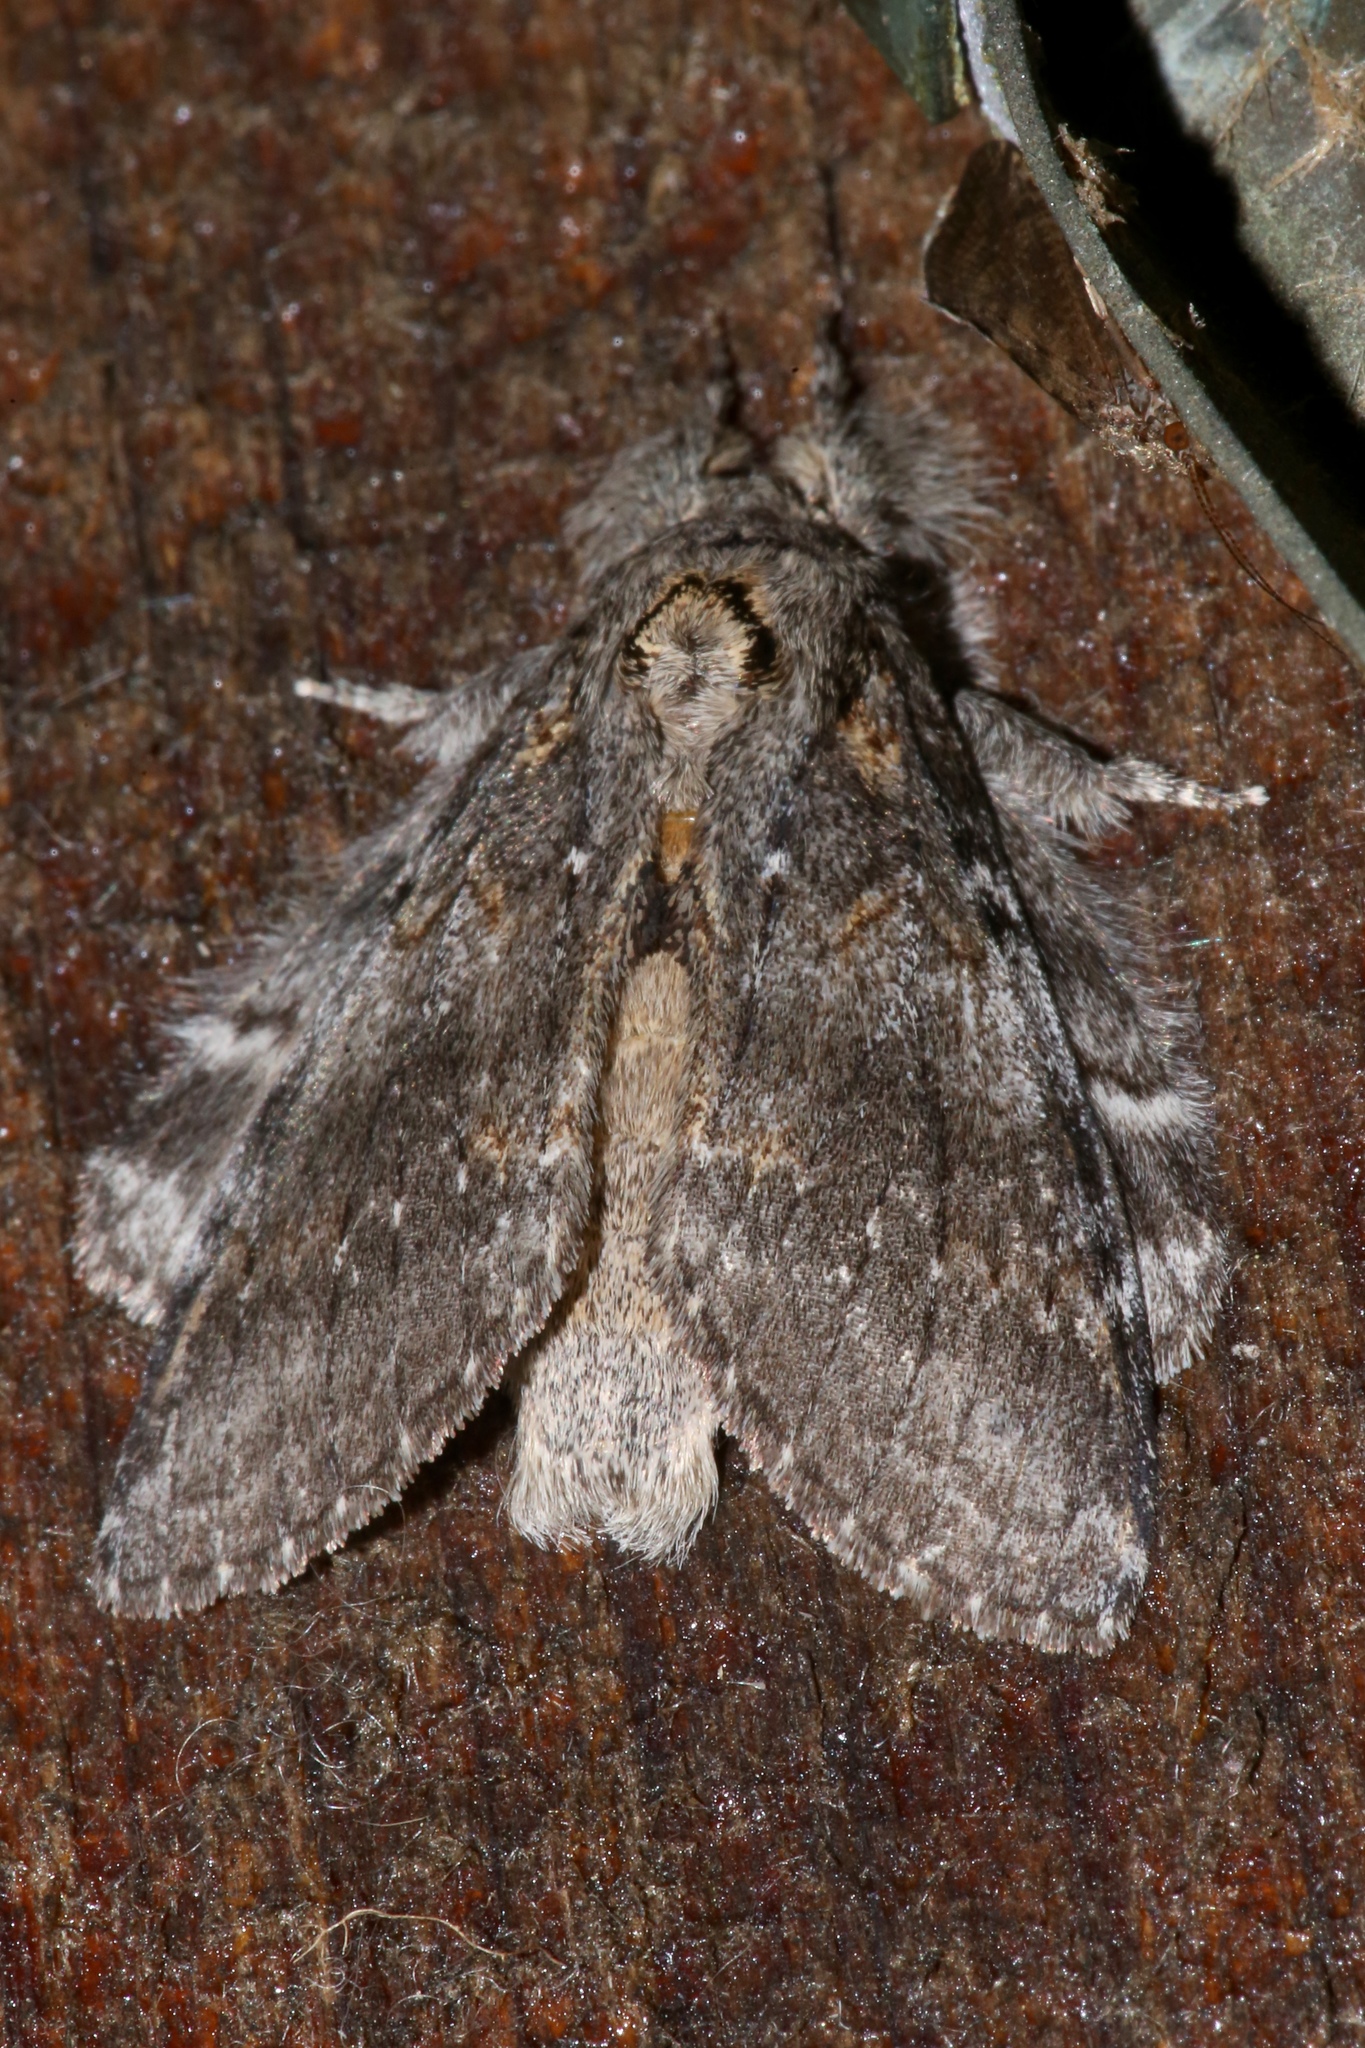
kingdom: Animalia
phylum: Arthropoda
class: Insecta
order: Lepidoptera
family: Notodontidae
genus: Peridea
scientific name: Peridea angulosa
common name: Angulose prominent
